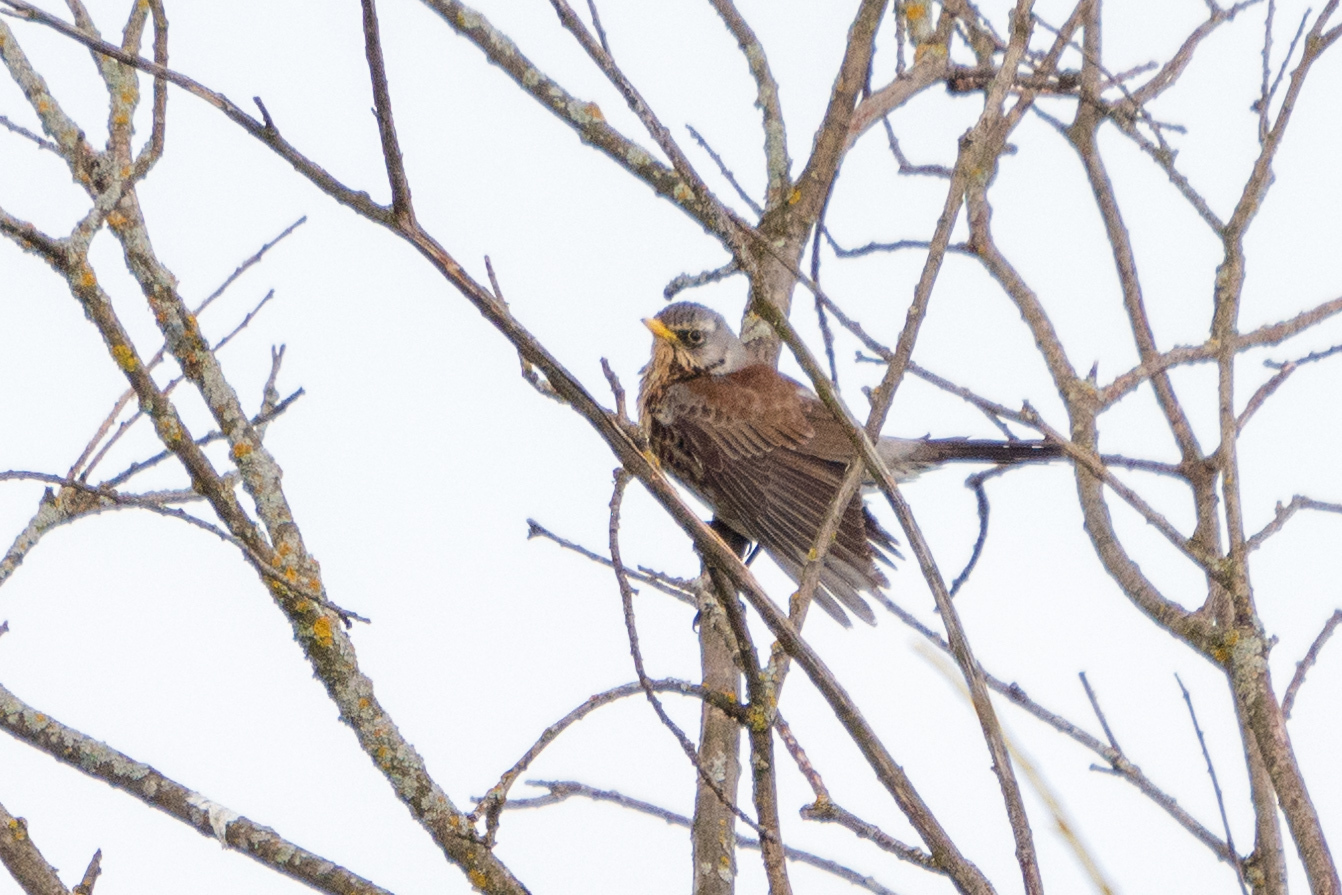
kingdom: Animalia
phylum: Chordata
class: Aves
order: Passeriformes
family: Turdidae
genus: Turdus
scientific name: Turdus pilaris
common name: Fieldfare
